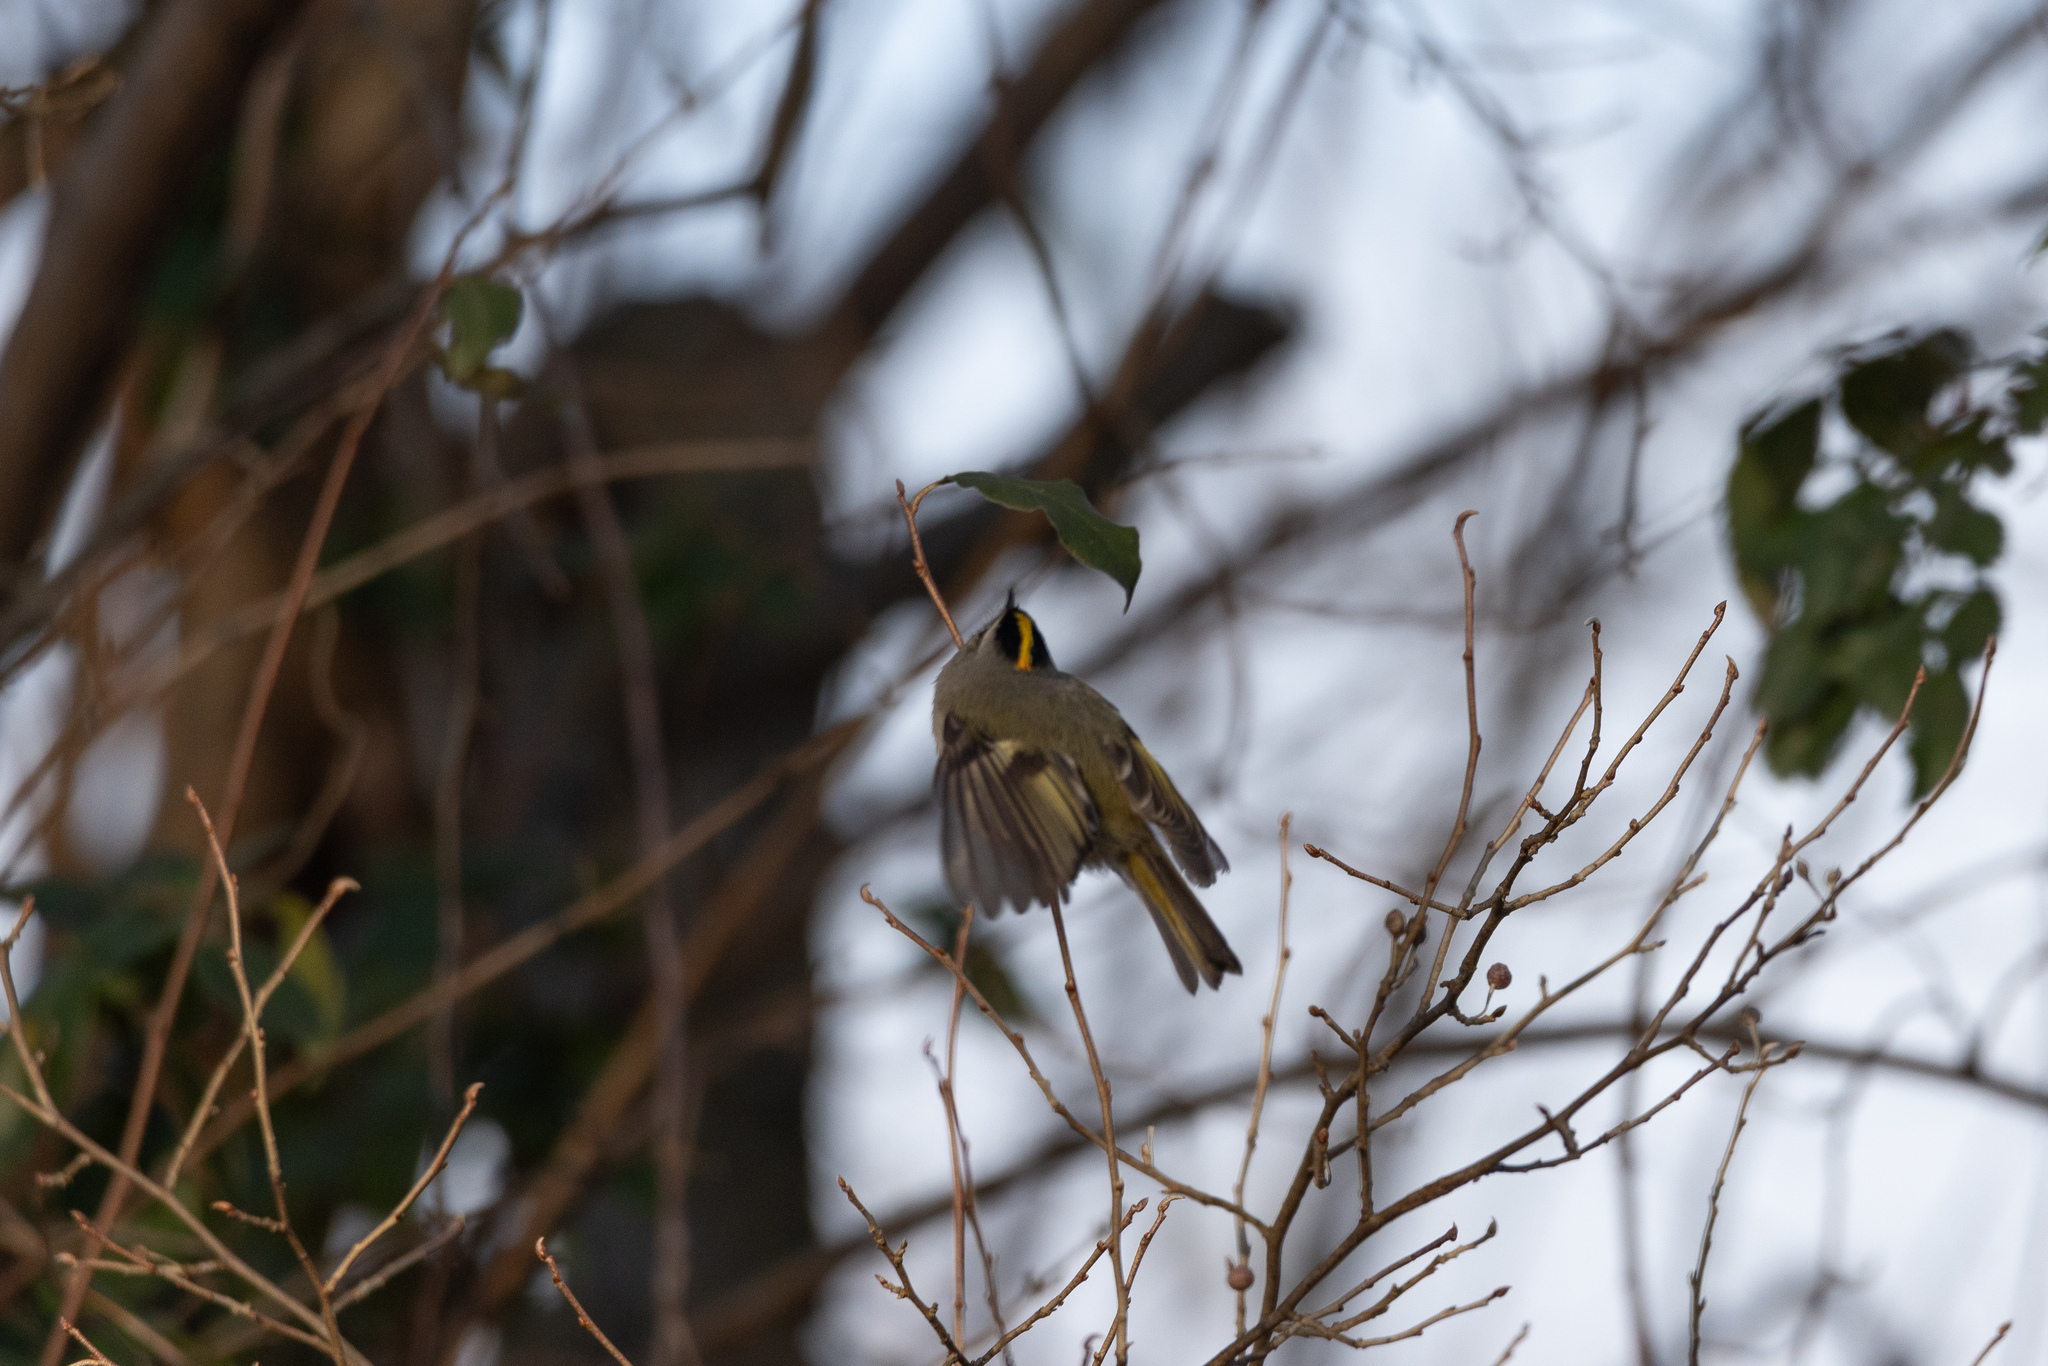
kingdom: Animalia
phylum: Chordata
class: Aves
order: Passeriformes
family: Regulidae
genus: Regulus
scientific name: Regulus satrapa
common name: Golden-crowned kinglet
